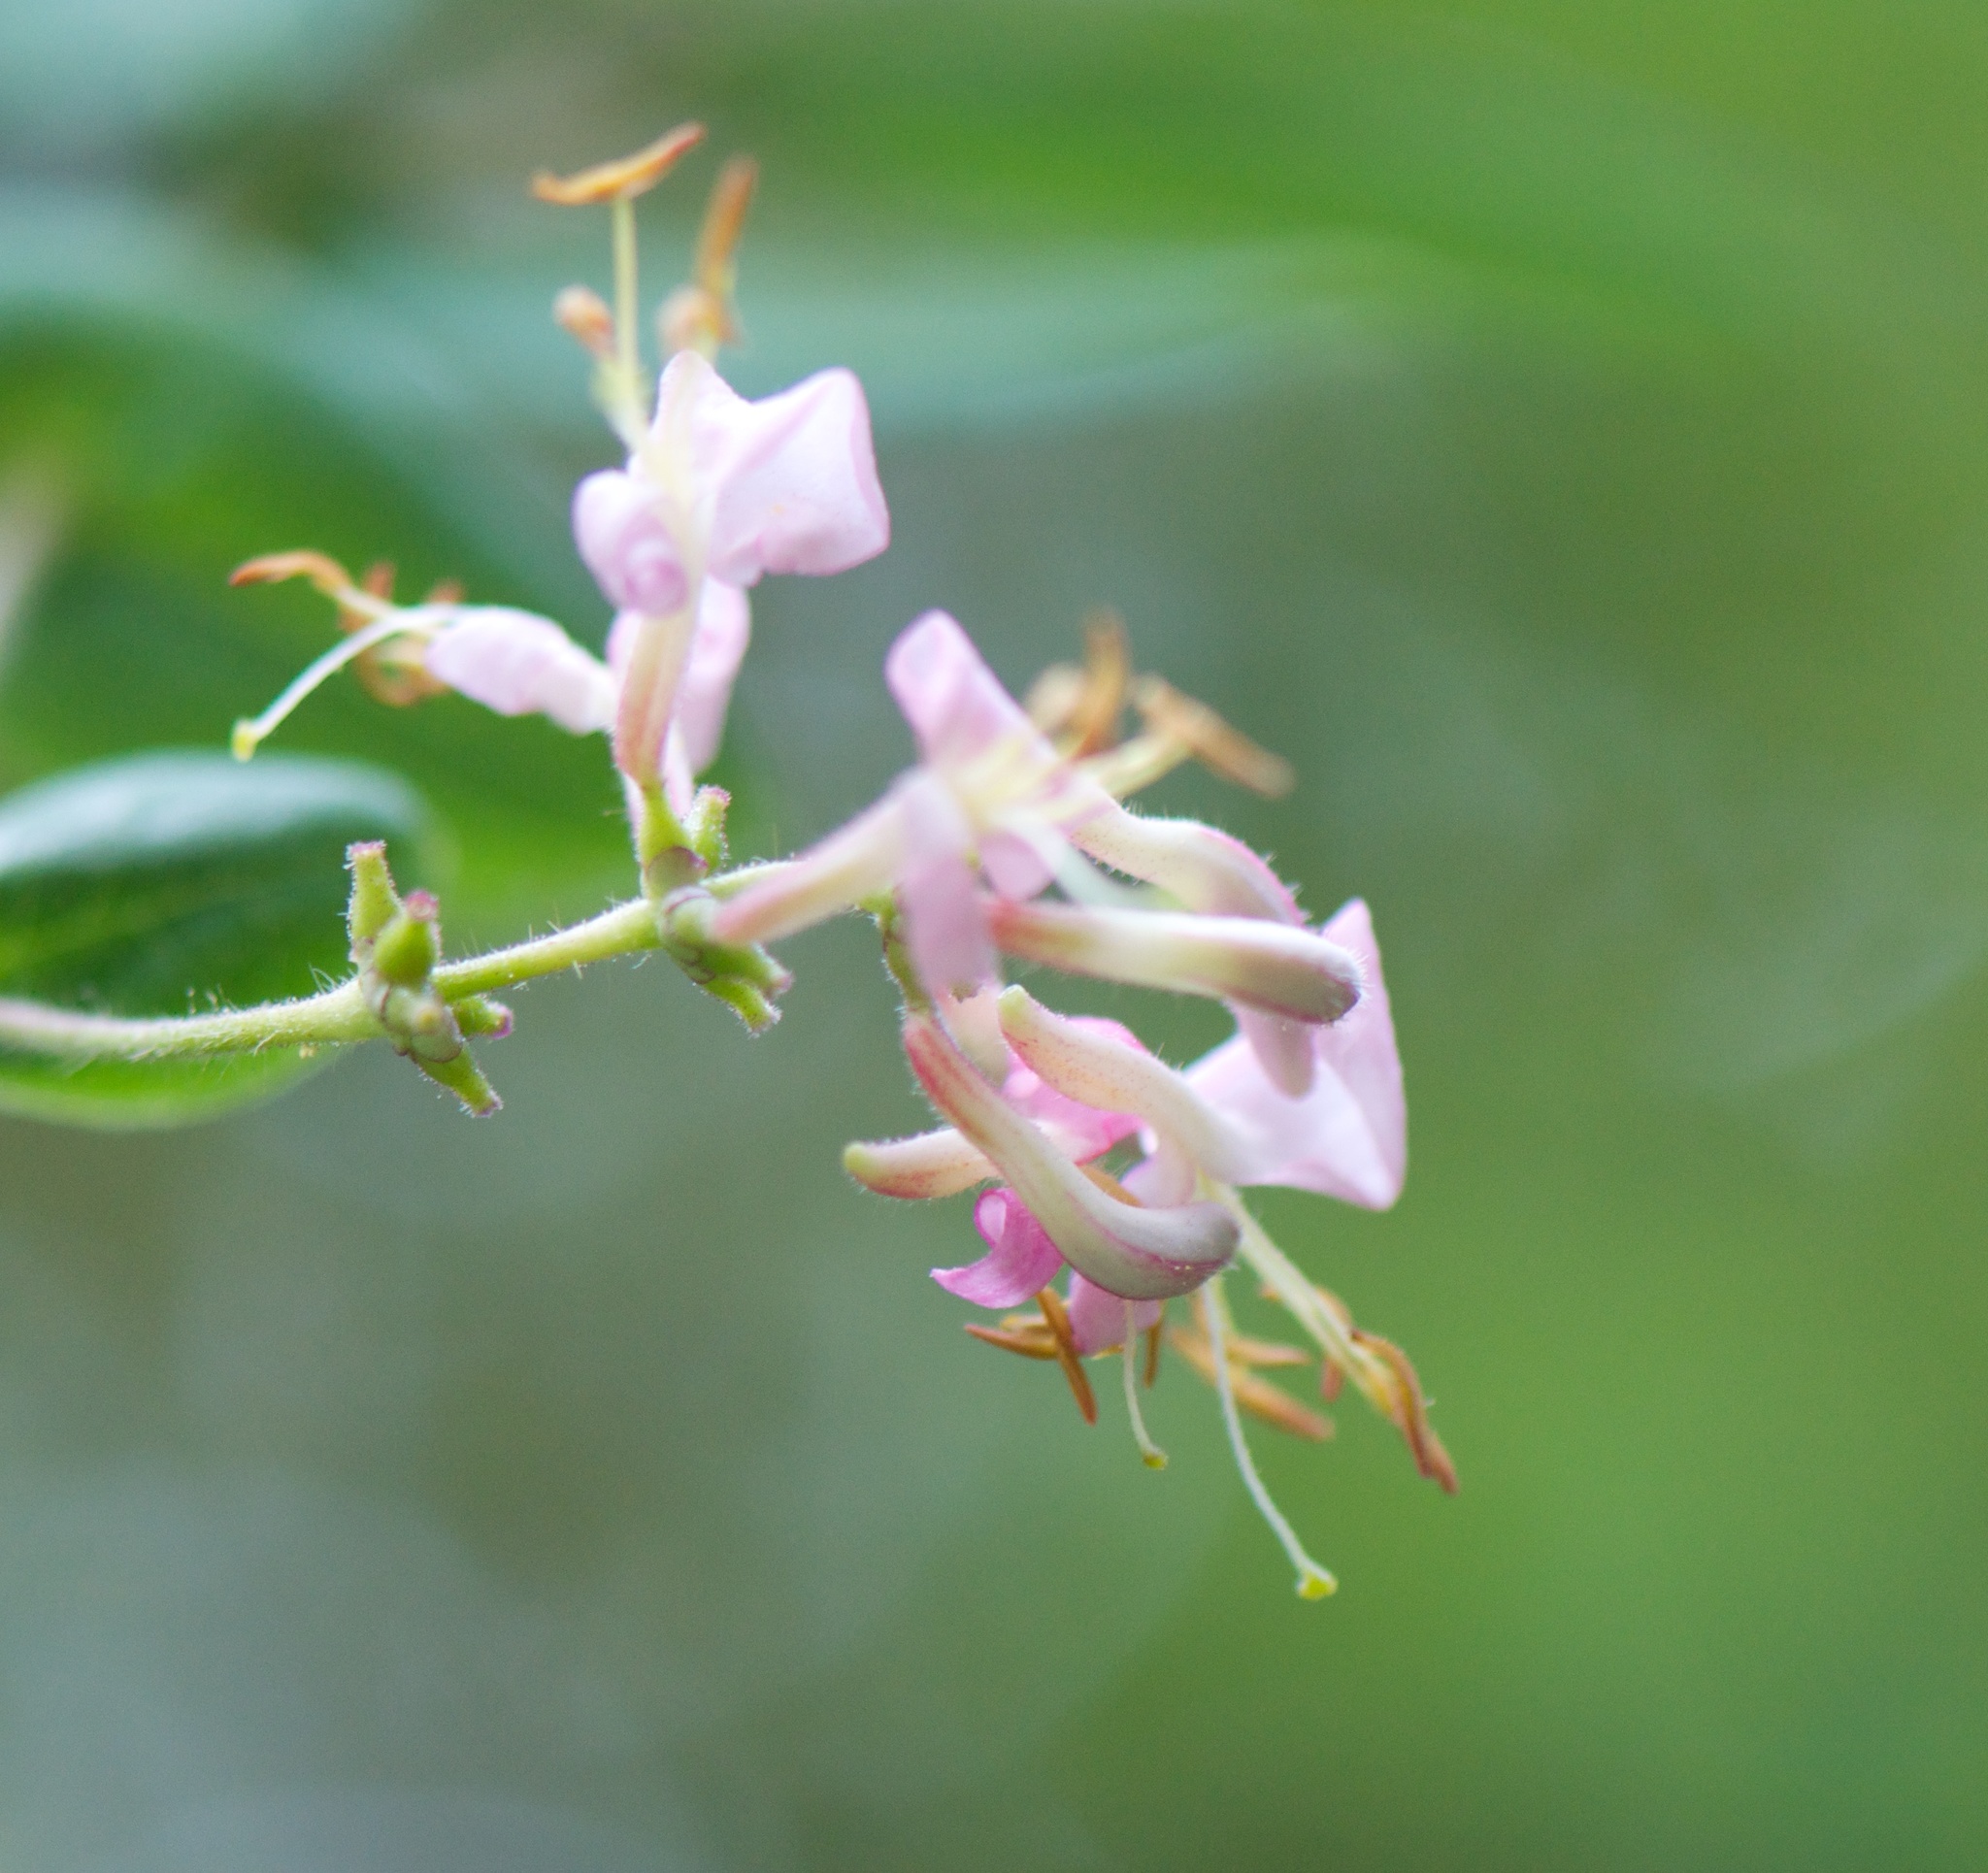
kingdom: Plantae
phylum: Tracheophyta
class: Magnoliopsida
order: Dipsacales
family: Caprifoliaceae
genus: Lonicera
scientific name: Lonicera hispidula
